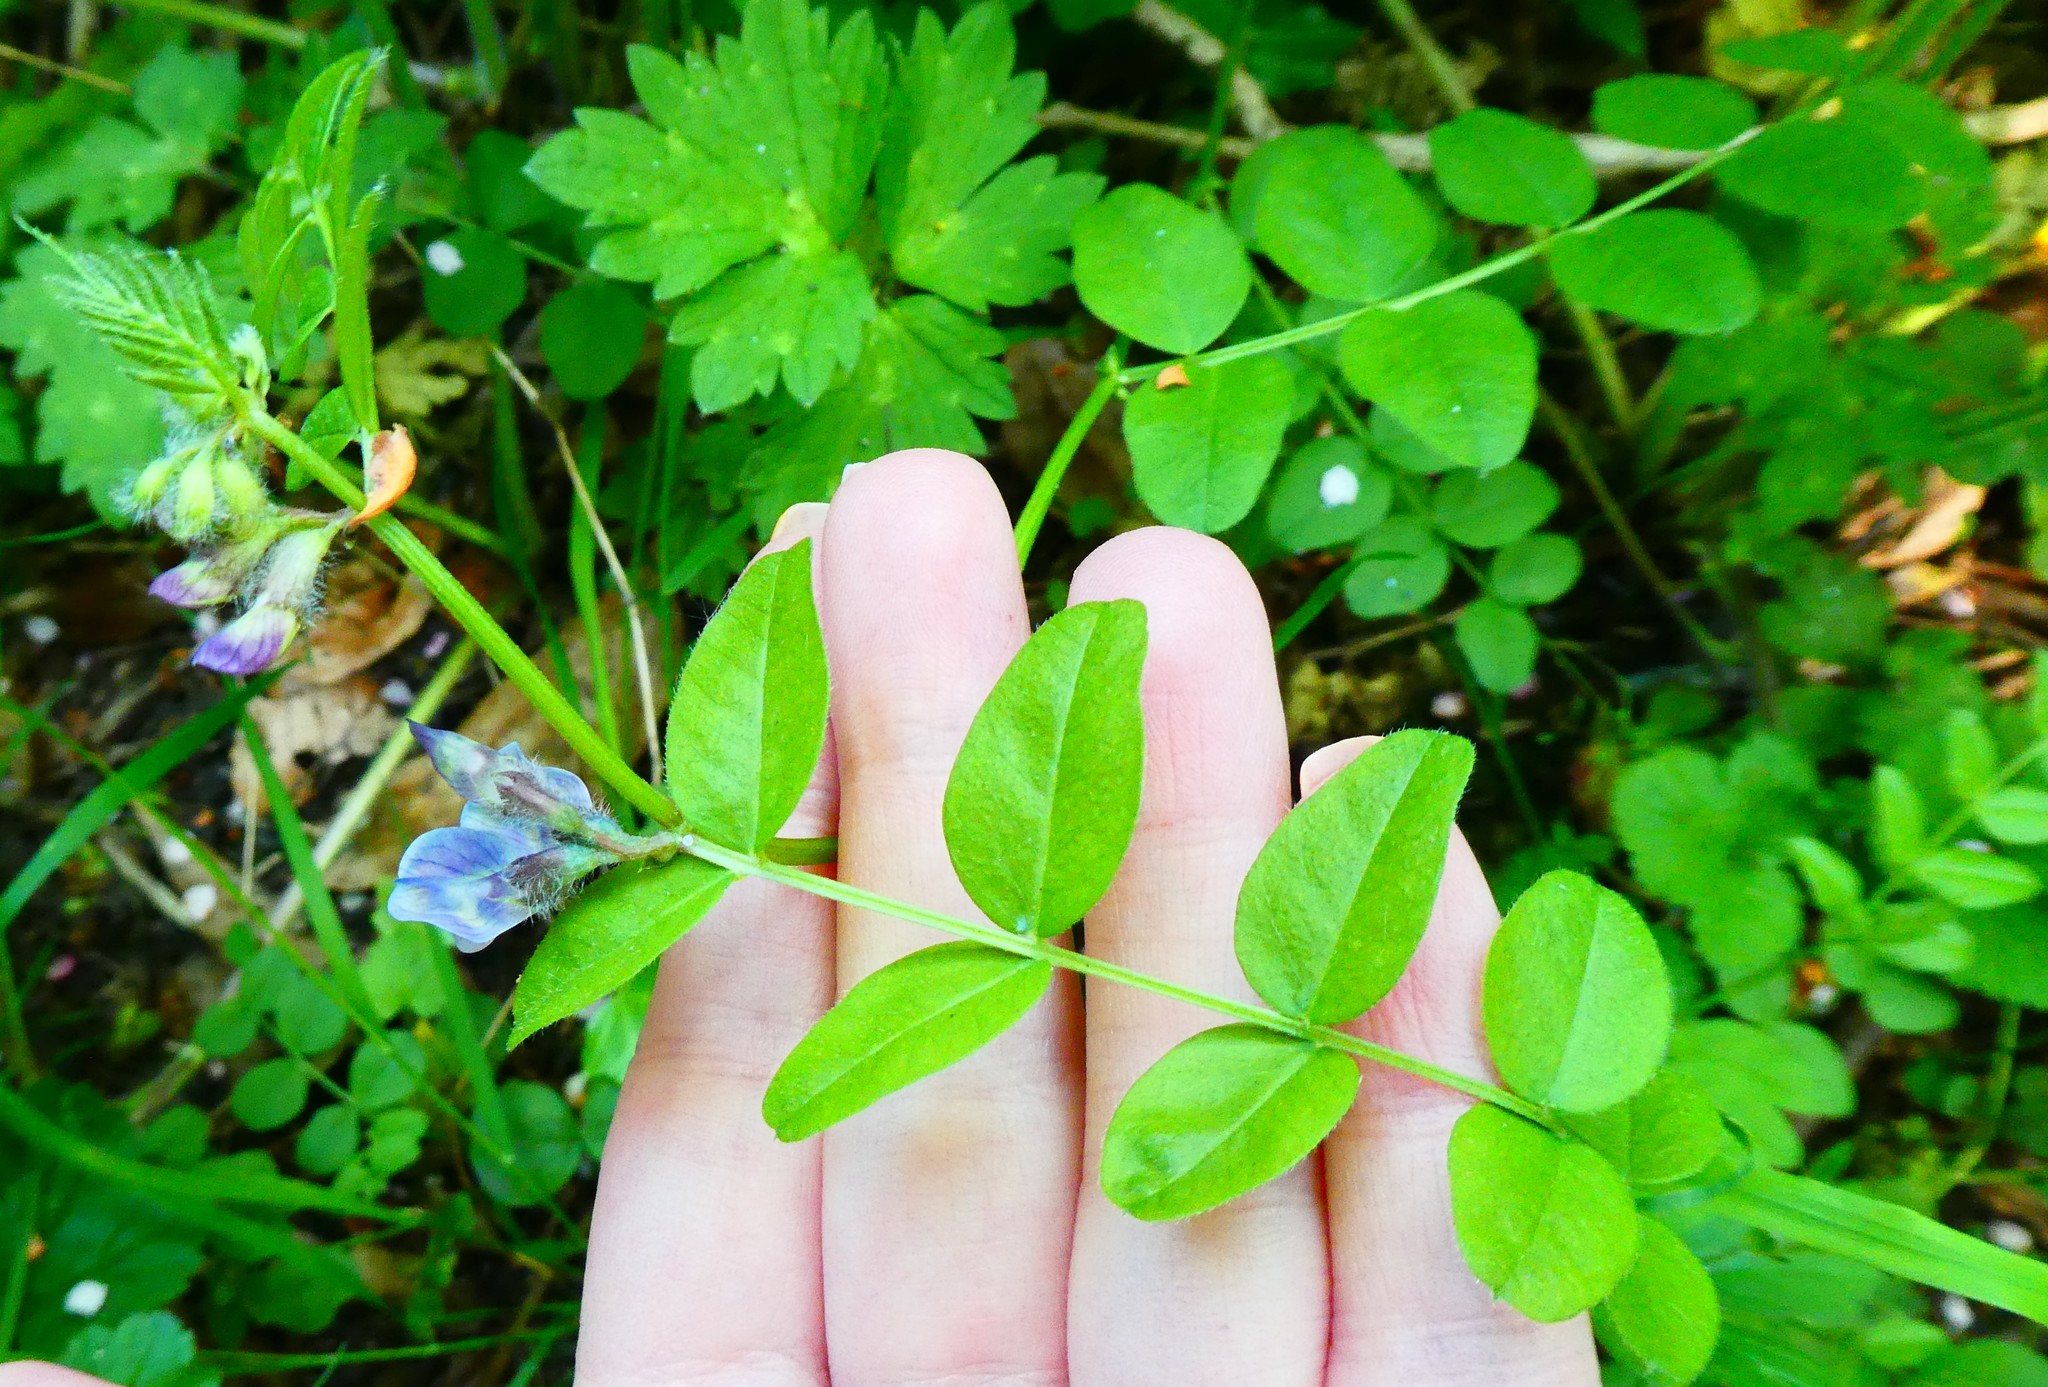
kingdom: Plantae
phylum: Tracheophyta
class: Magnoliopsida
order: Fabales
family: Fabaceae
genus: Vicia
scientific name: Vicia sepium
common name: Bush vetch
